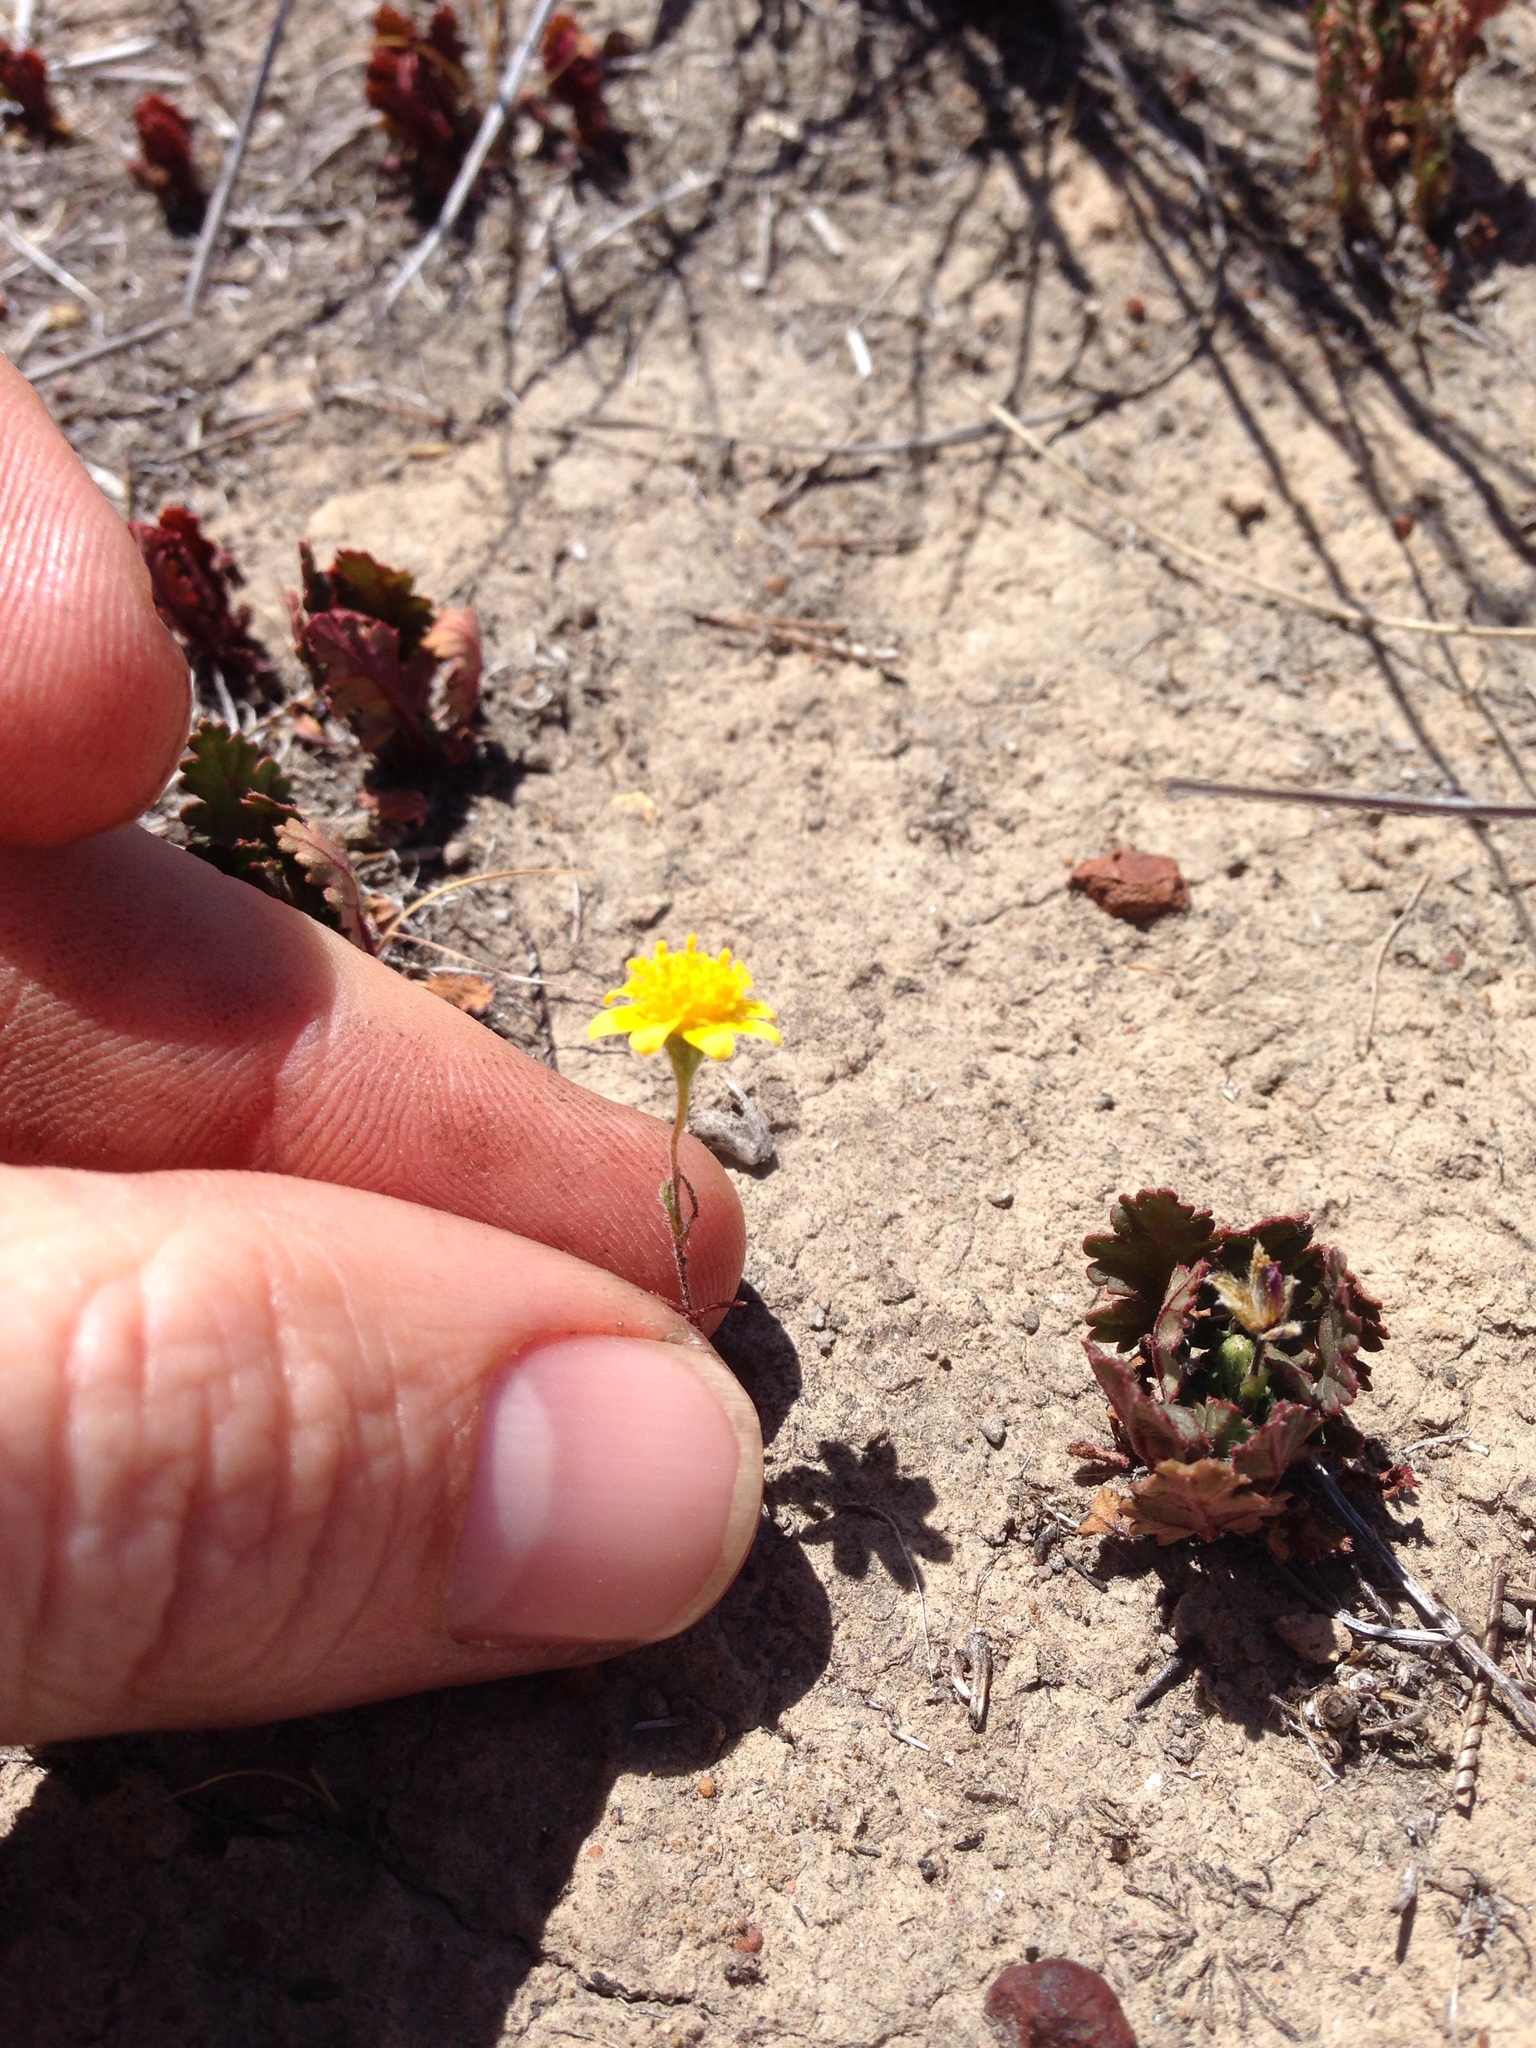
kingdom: Plantae
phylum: Tracheophyta
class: Magnoliopsida
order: Asterales
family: Asteraceae
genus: Lasthenia
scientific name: Lasthenia gracilis
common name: Common goldfields
